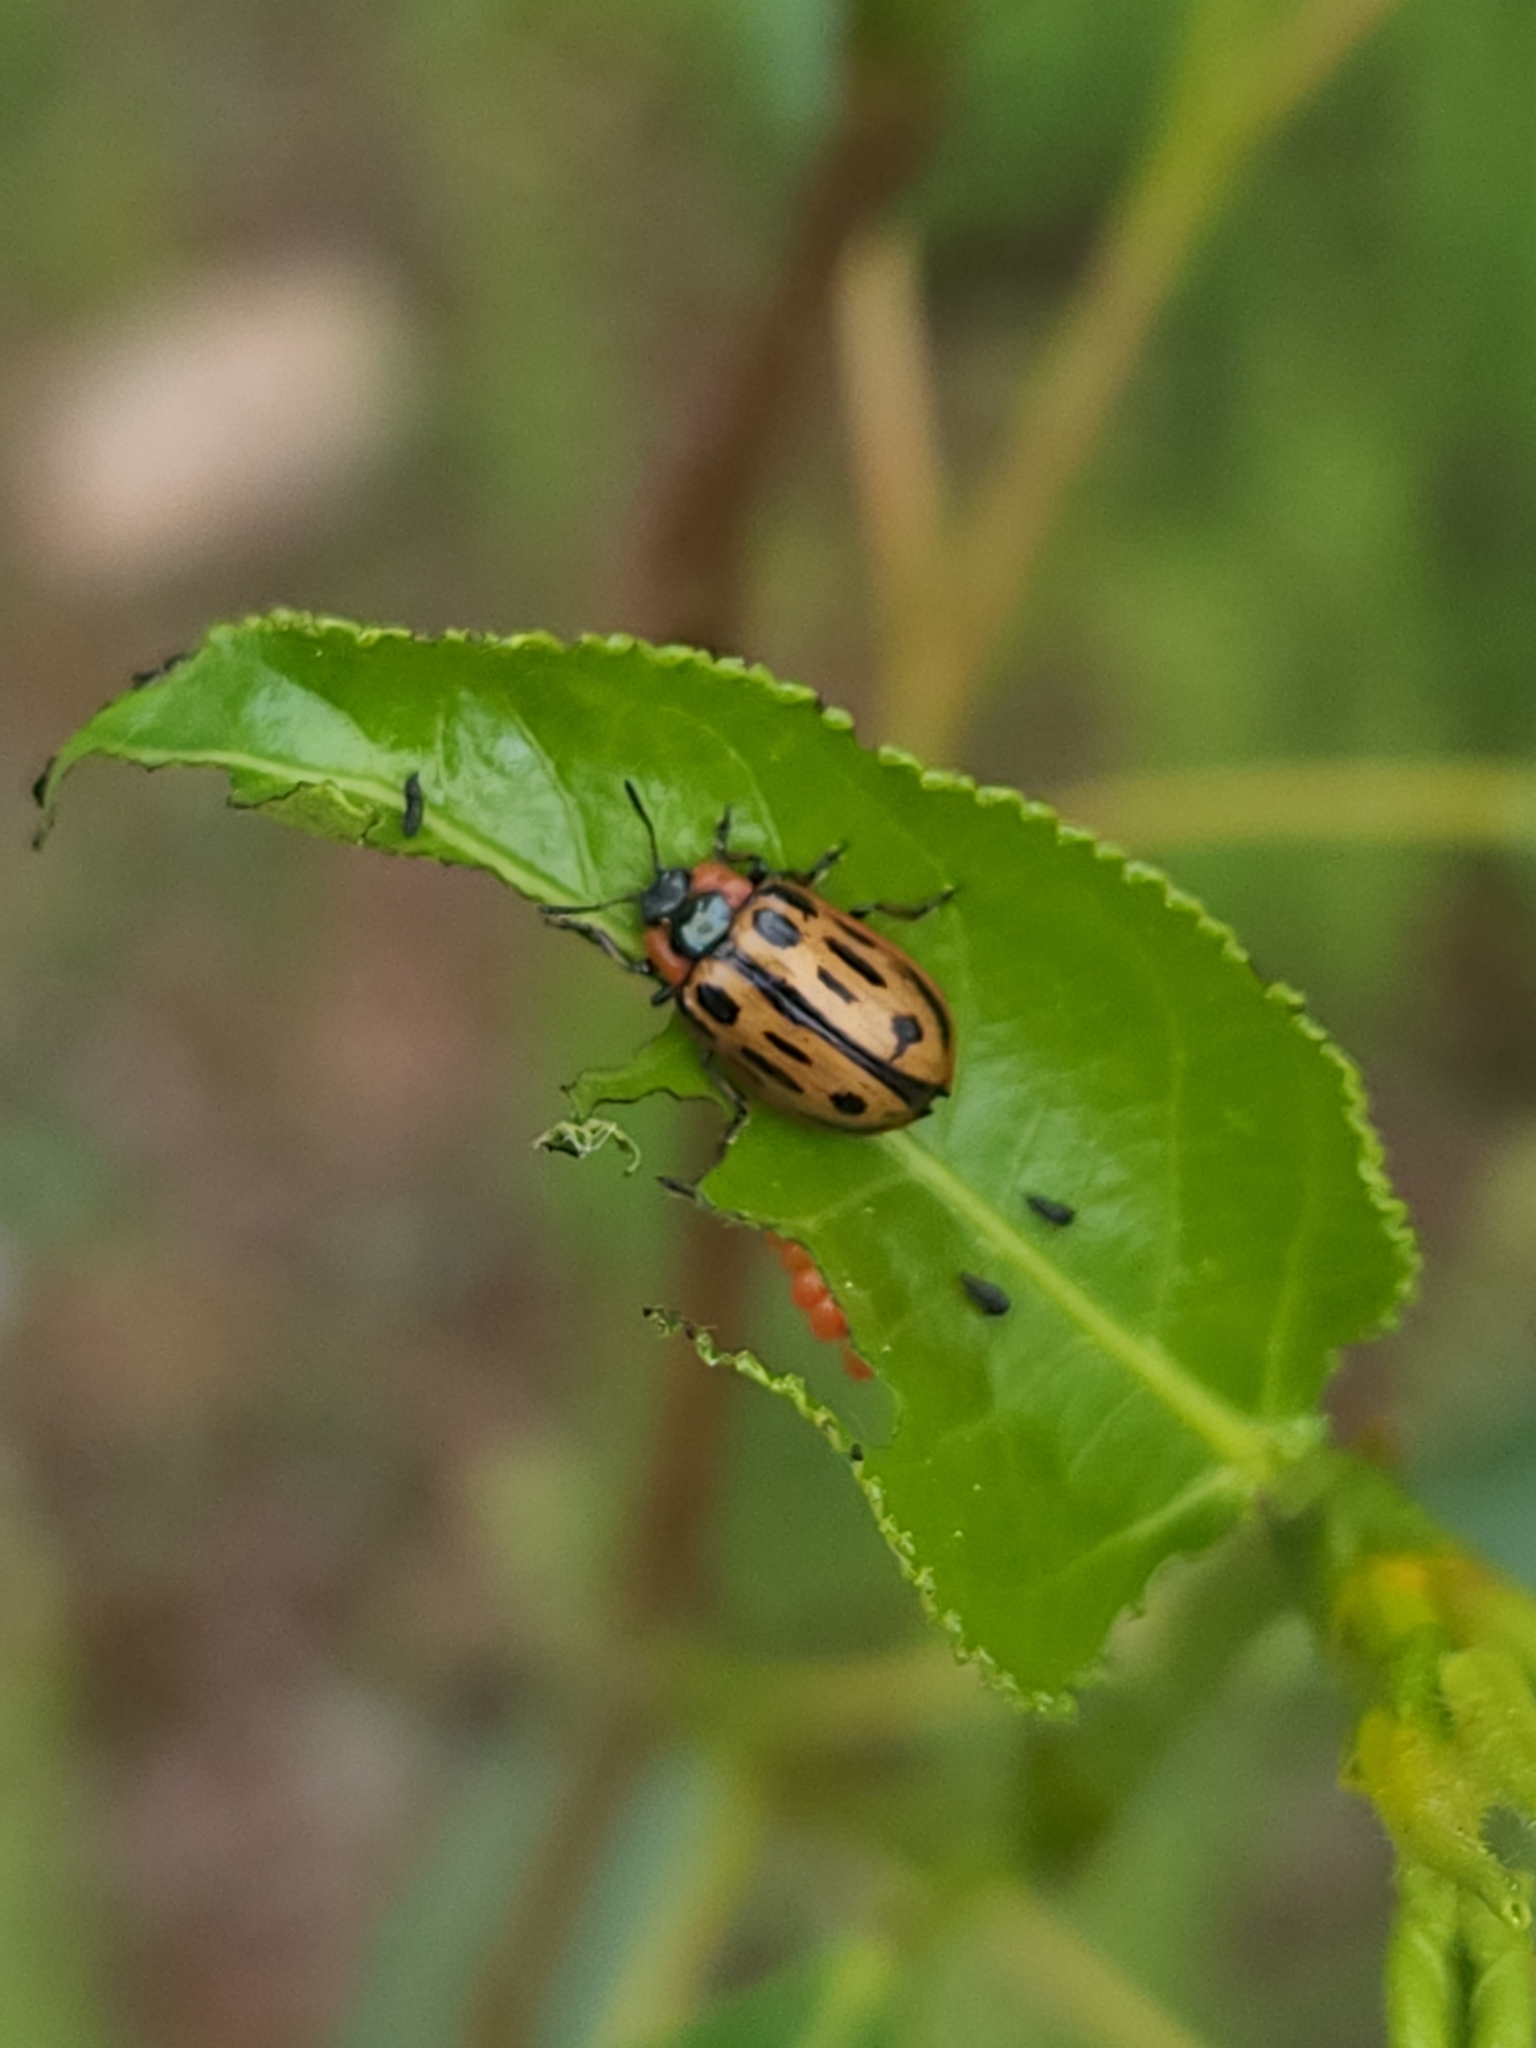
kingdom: Animalia
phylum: Arthropoda
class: Insecta
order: Coleoptera
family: Chrysomelidae
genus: Aethiopocassis
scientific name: Aethiopocassis scripta
